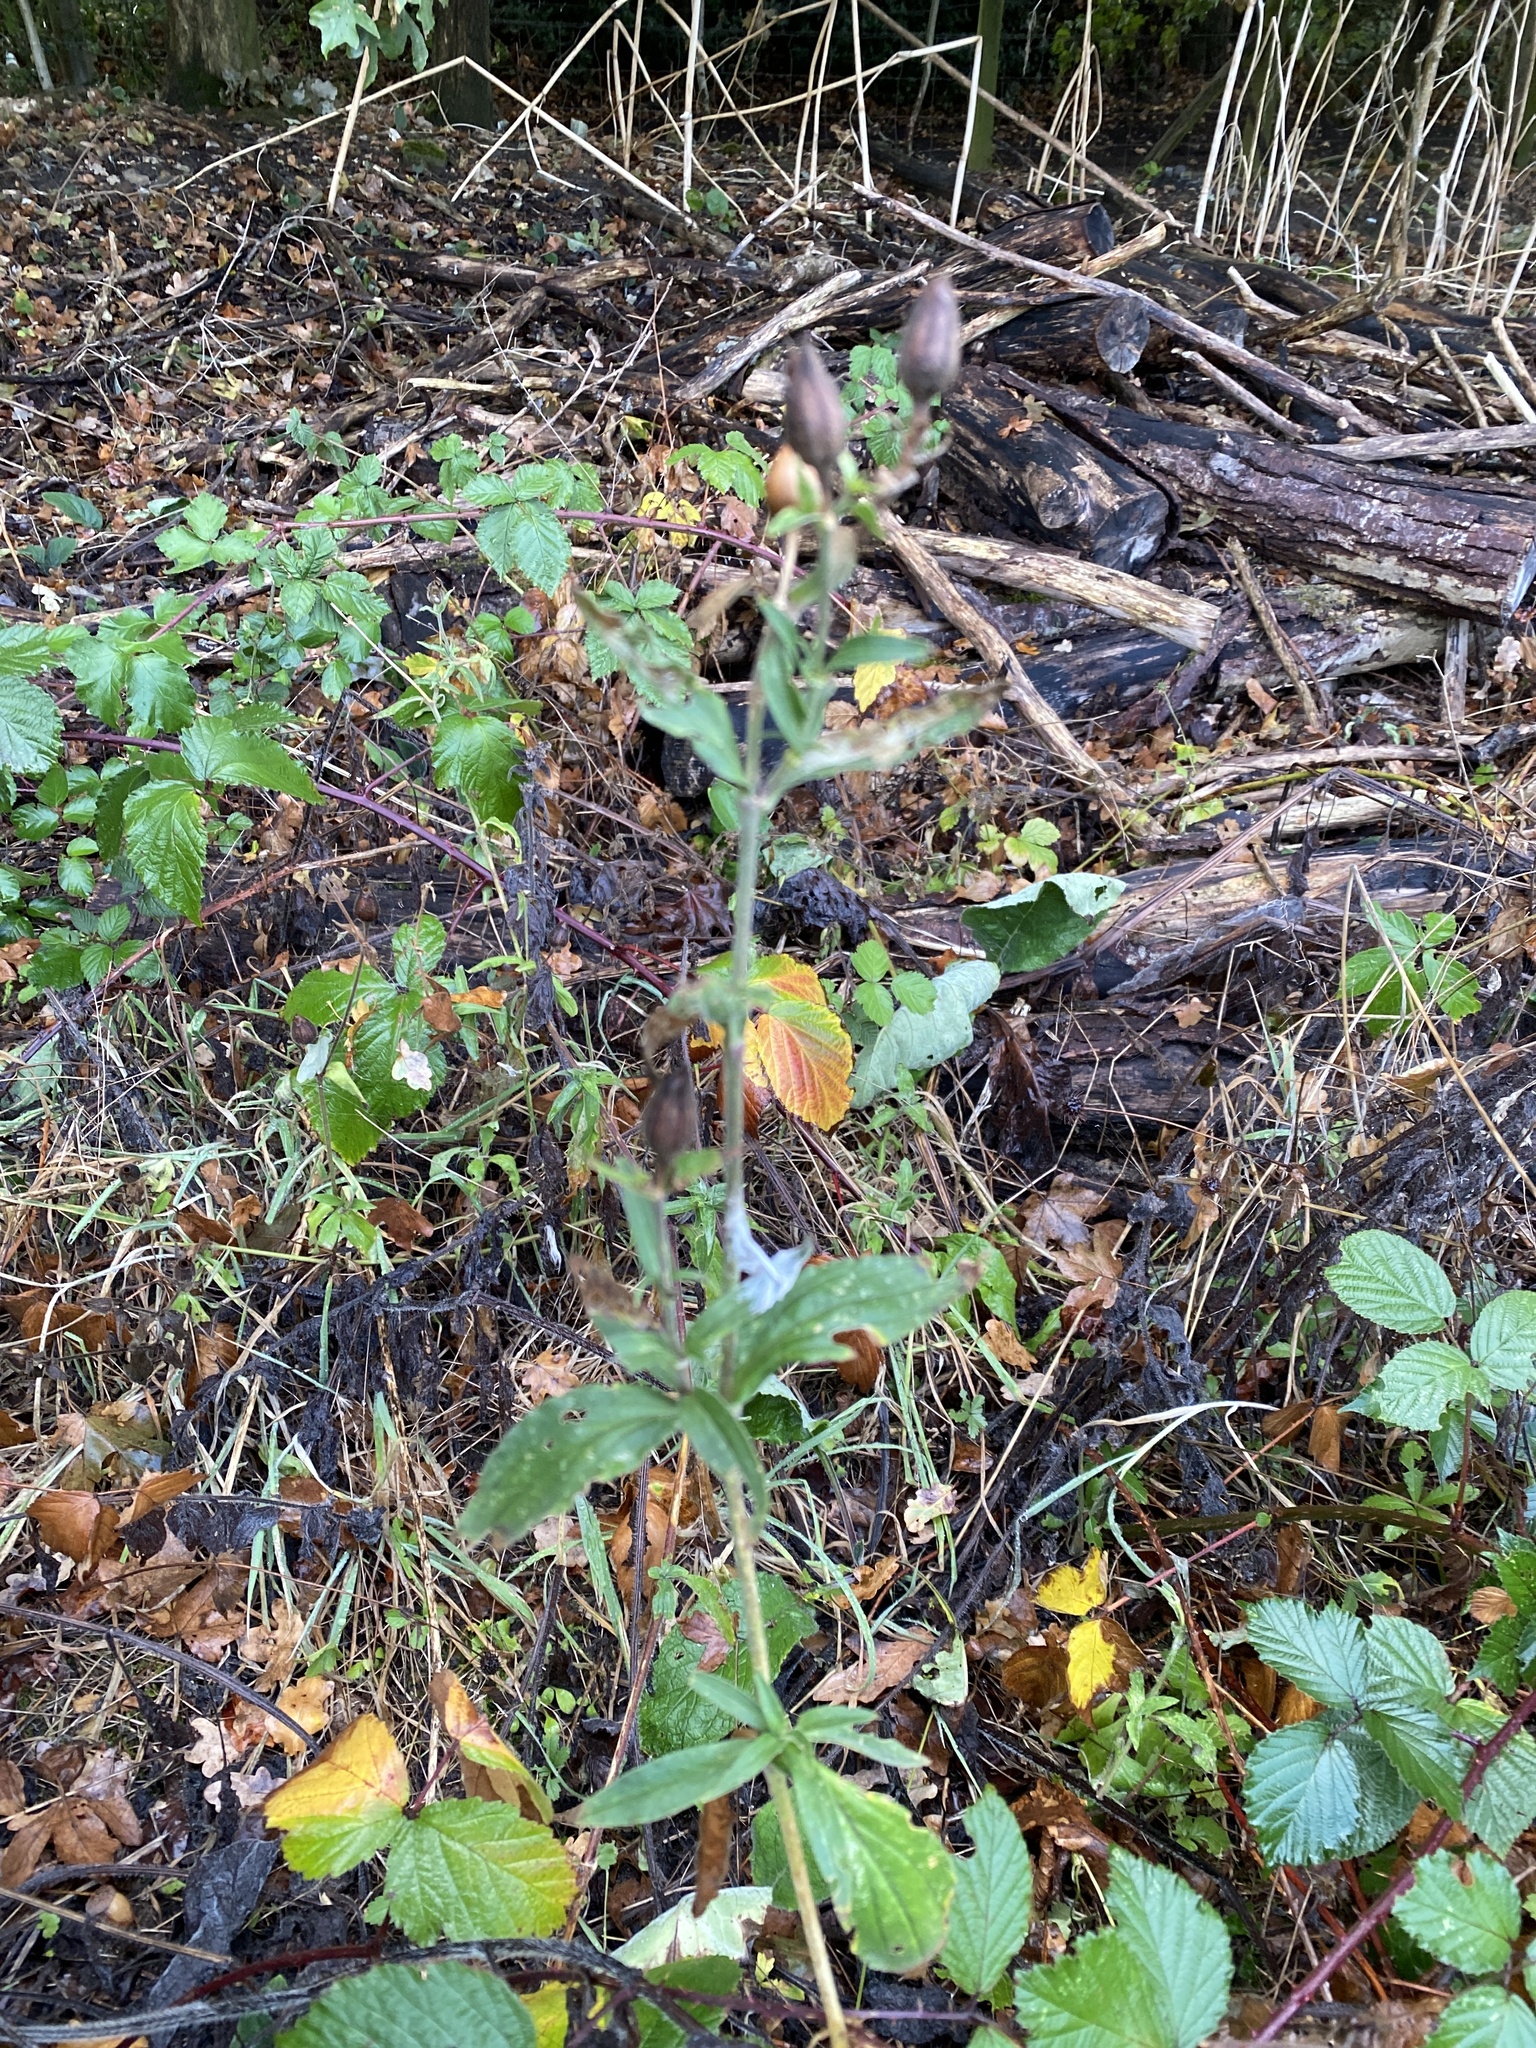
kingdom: Plantae
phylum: Tracheophyta
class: Magnoliopsida
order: Caryophyllales
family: Caryophyllaceae
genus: Silene
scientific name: Silene latifolia
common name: White campion
